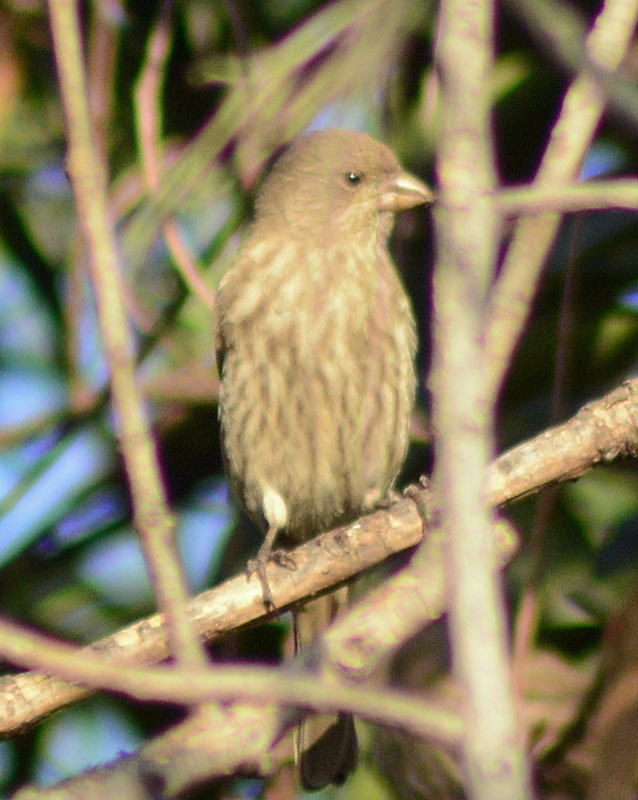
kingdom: Animalia
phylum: Chordata
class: Aves
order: Passeriformes
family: Fringillidae
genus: Haemorhous
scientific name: Haemorhous mexicanus
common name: House finch
